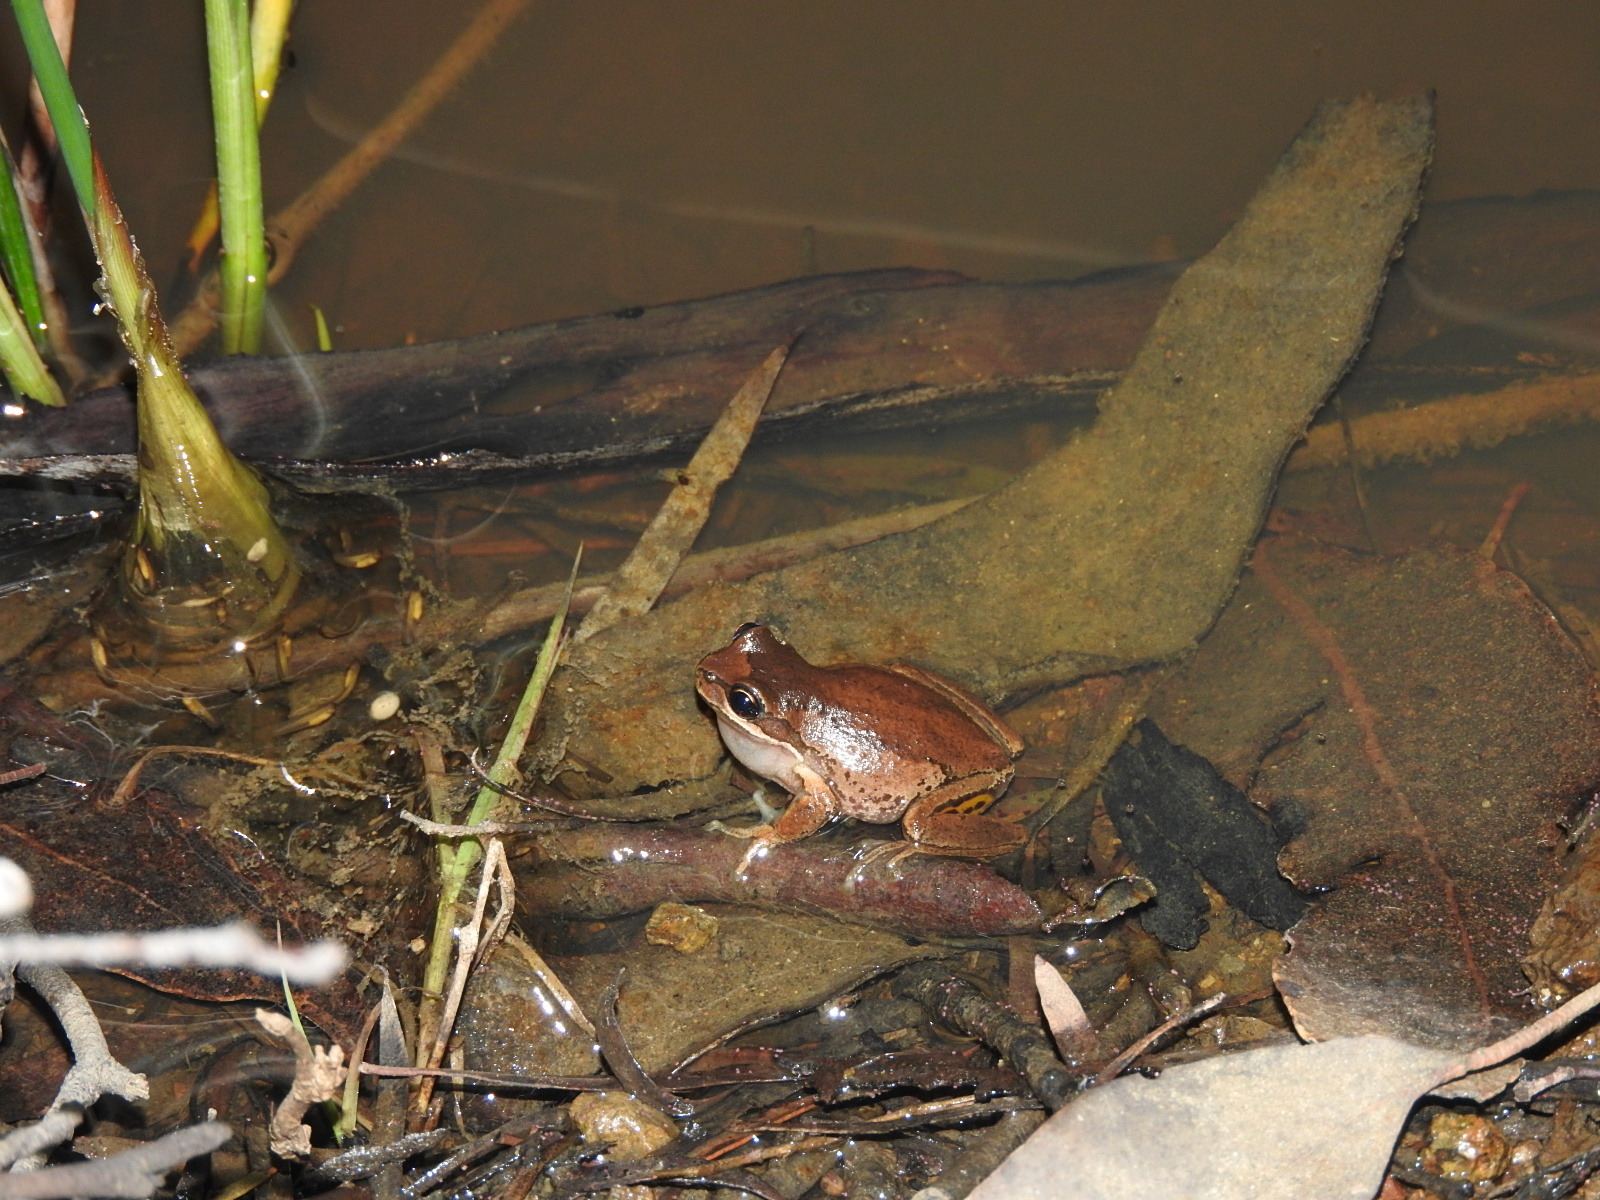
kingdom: Animalia
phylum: Chordata
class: Amphibia
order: Anura
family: Pelodryadidae
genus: Litoria
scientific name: Litoria ewingii
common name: Southern brown tree frog
